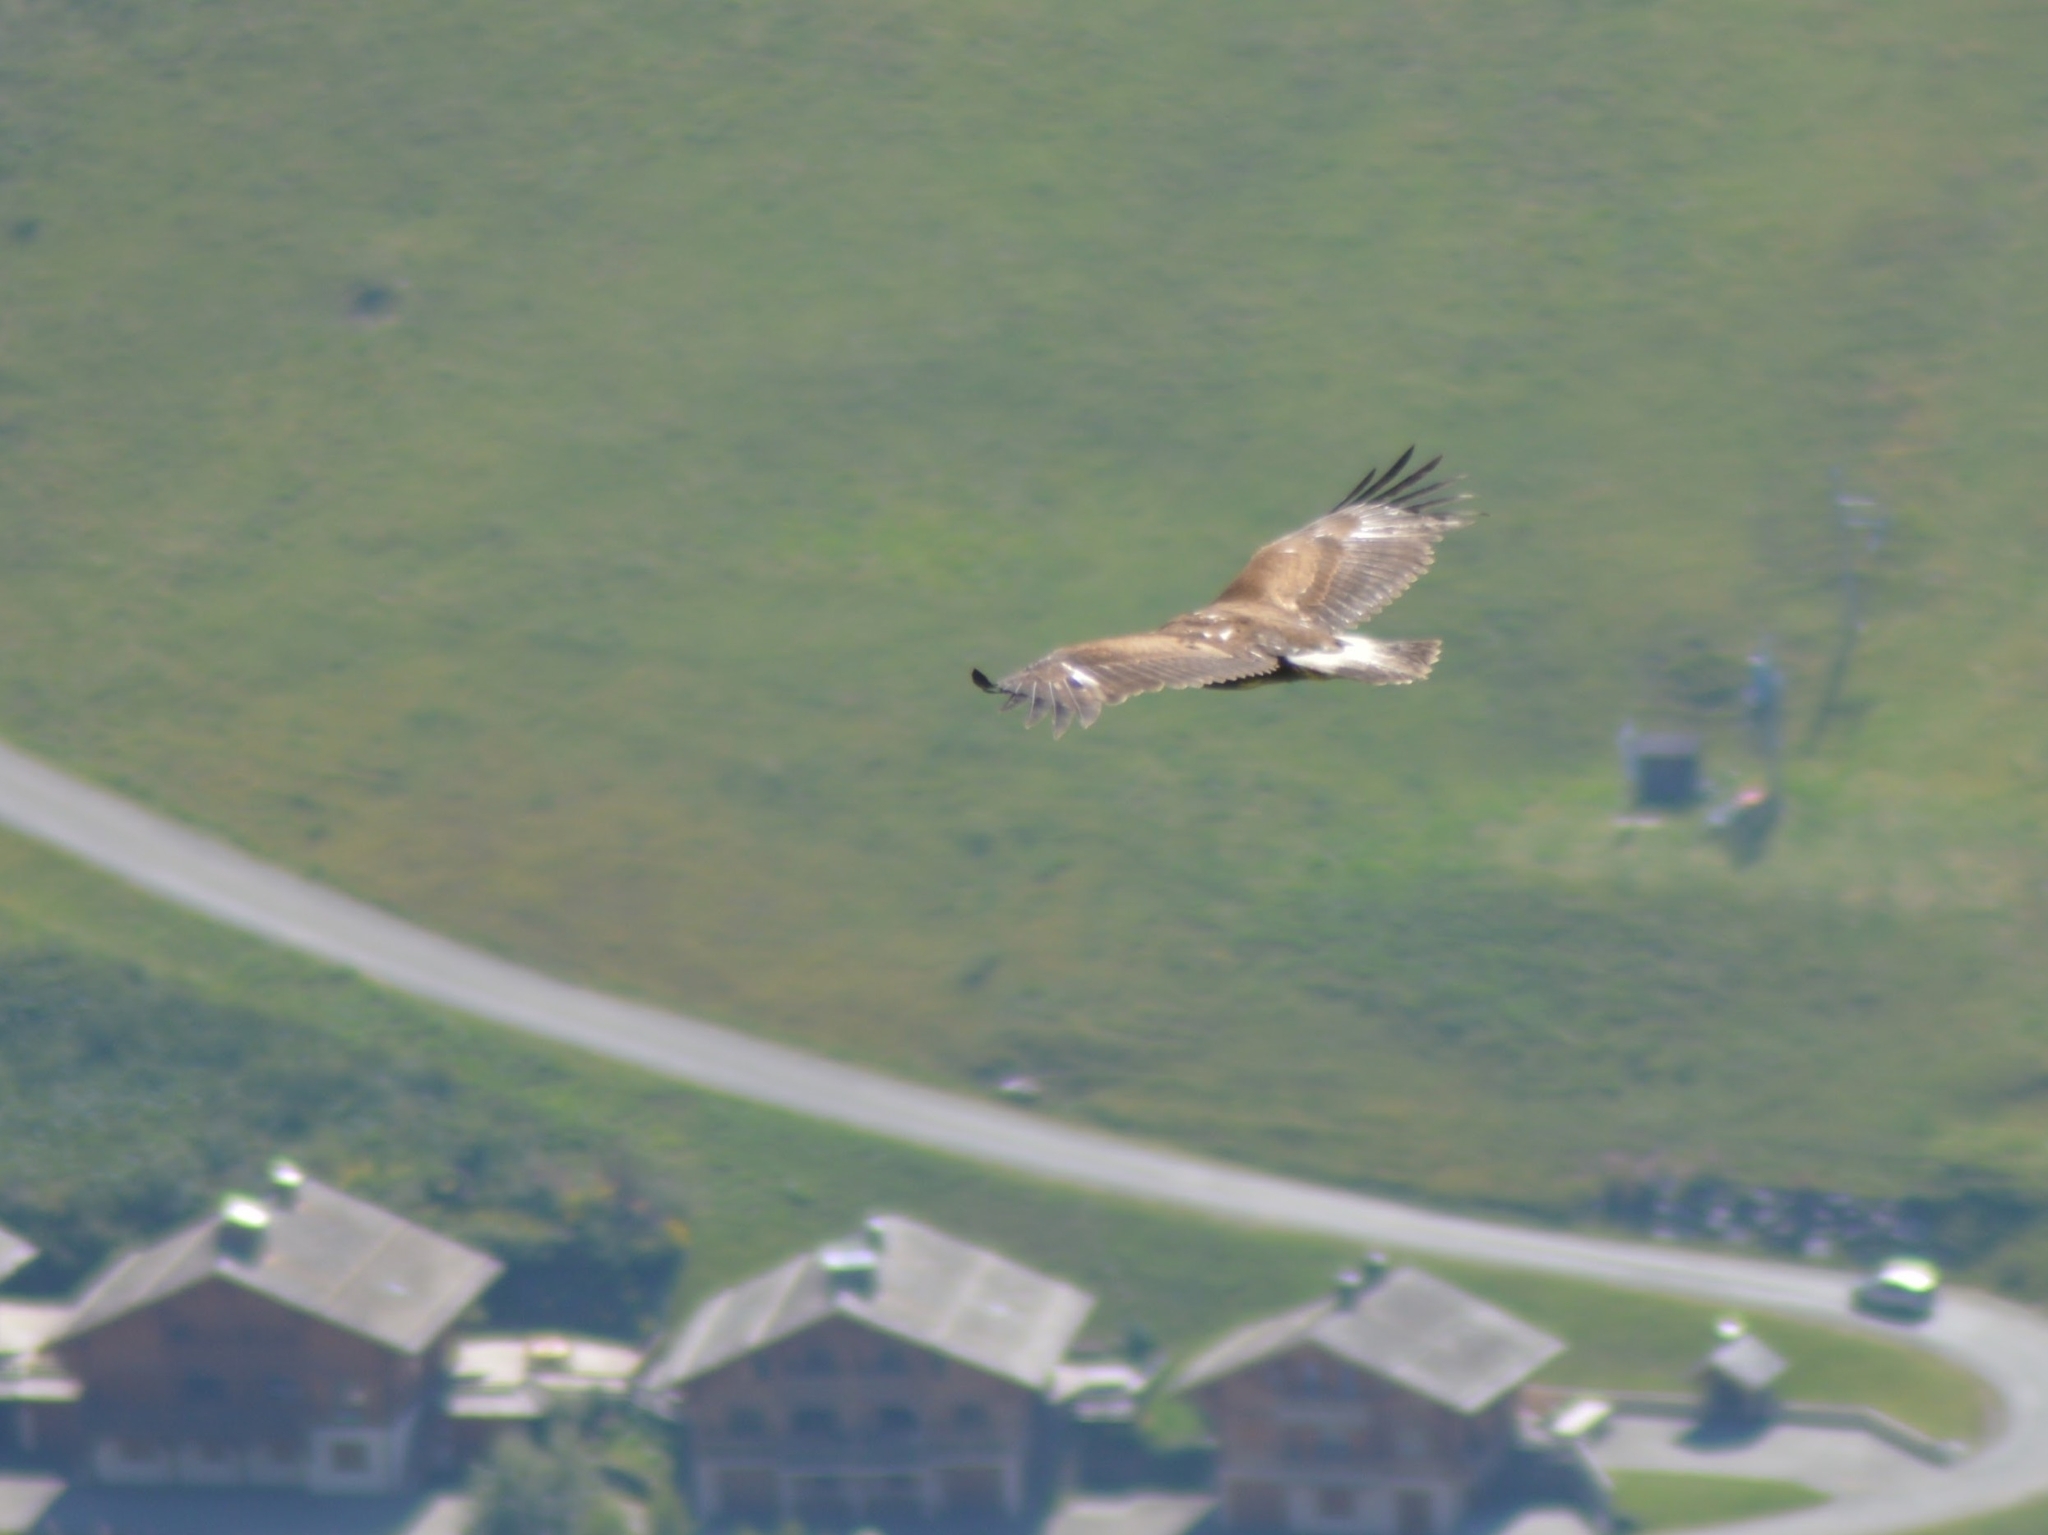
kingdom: Animalia
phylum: Chordata
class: Aves
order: Accipitriformes
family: Accipitridae
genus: Aquila
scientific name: Aquila chrysaetos
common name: Golden eagle
